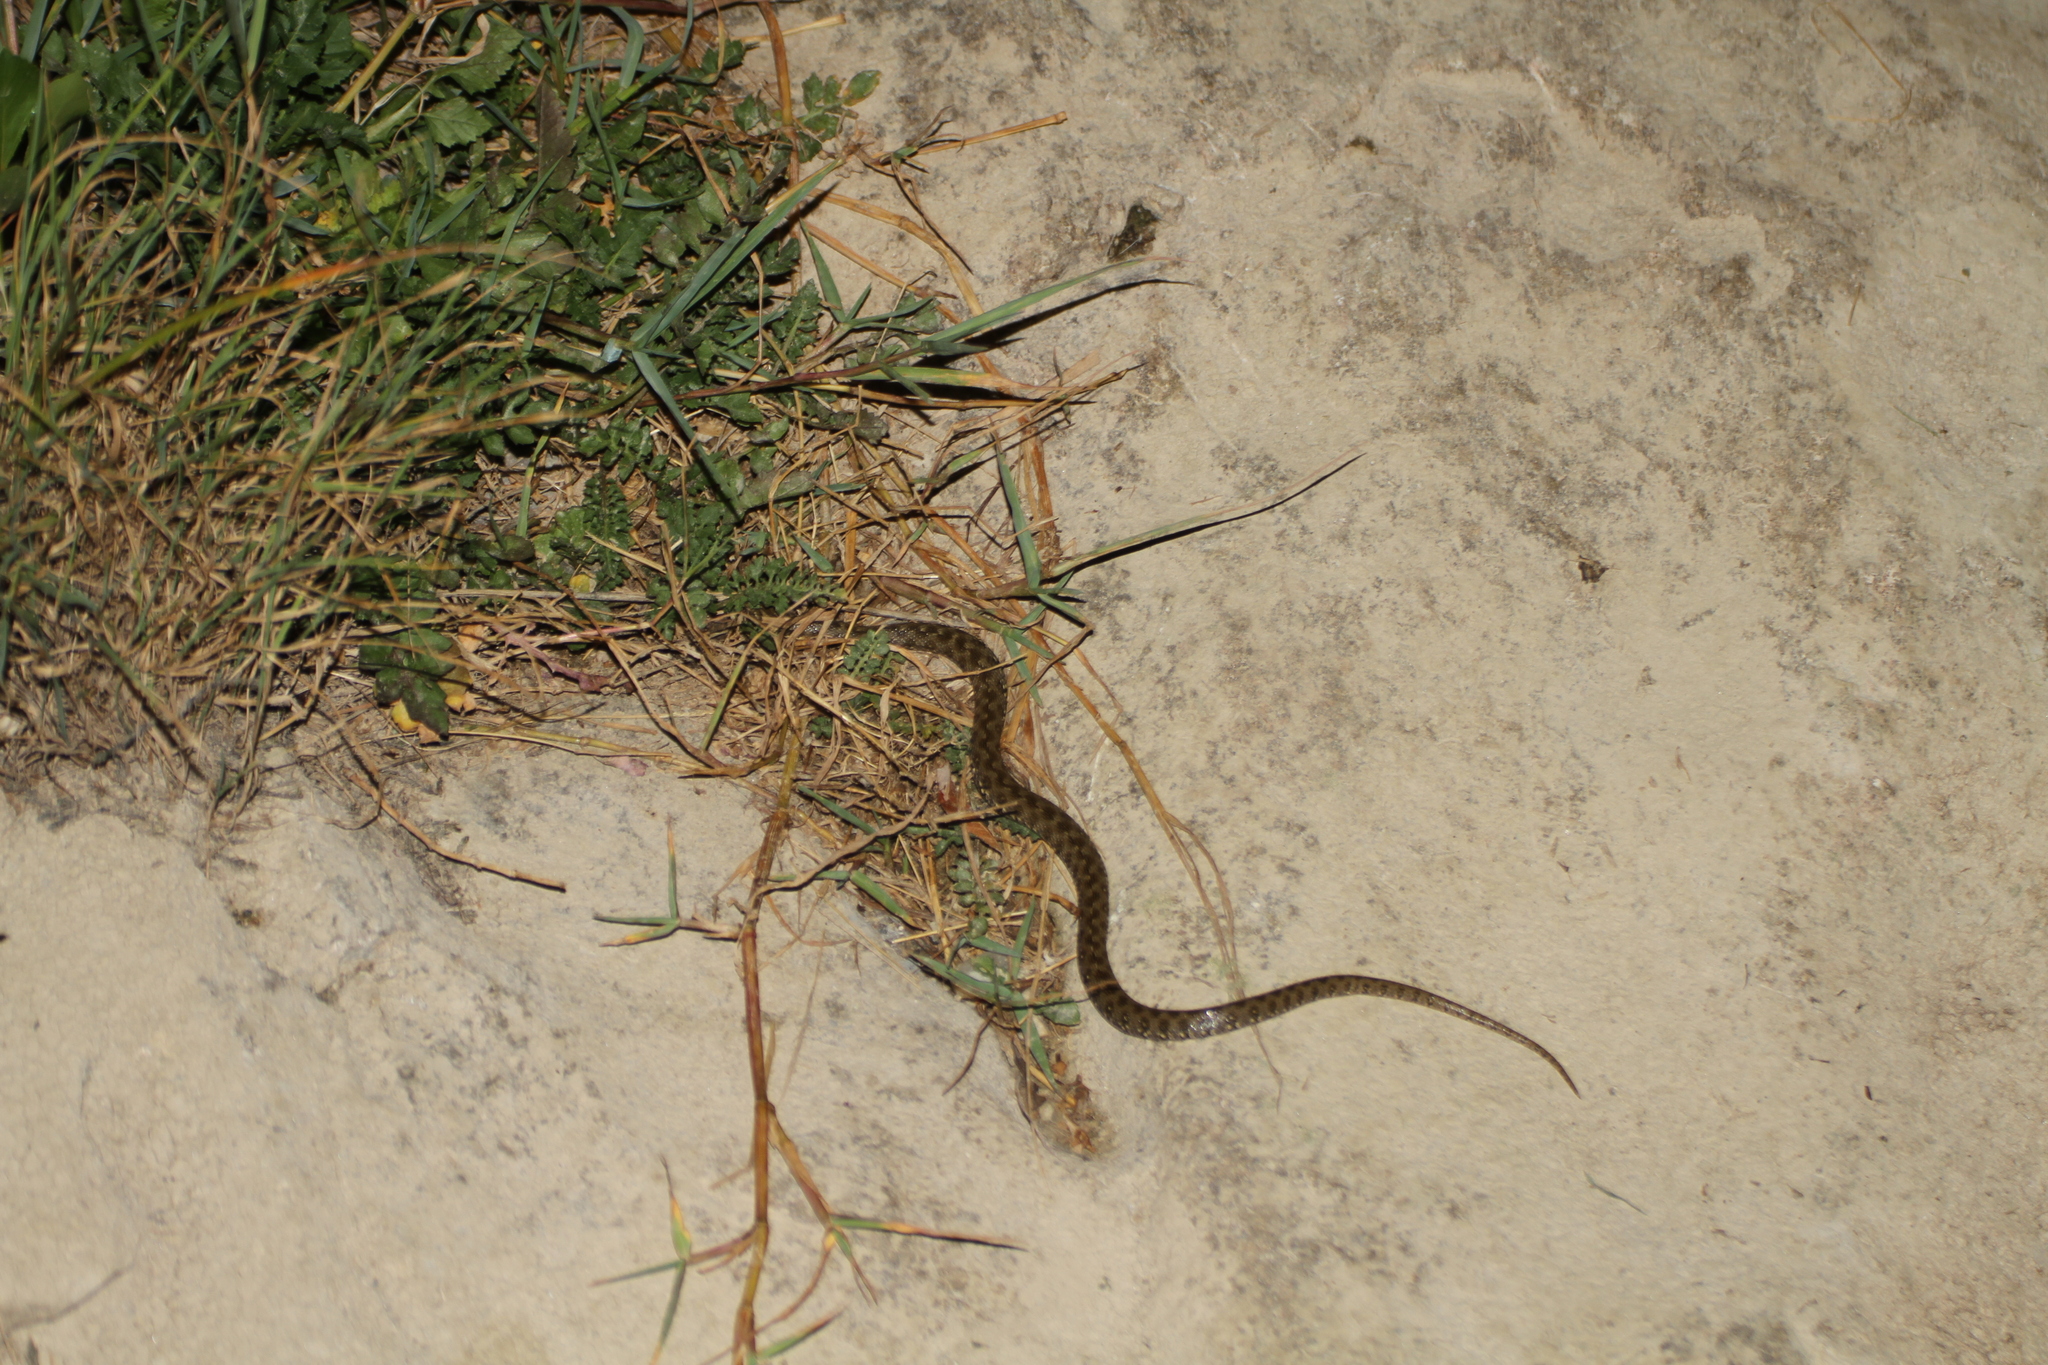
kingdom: Animalia
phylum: Chordata
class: Squamata
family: Colubridae
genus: Natrix
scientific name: Natrix maura
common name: Viperine water snake
